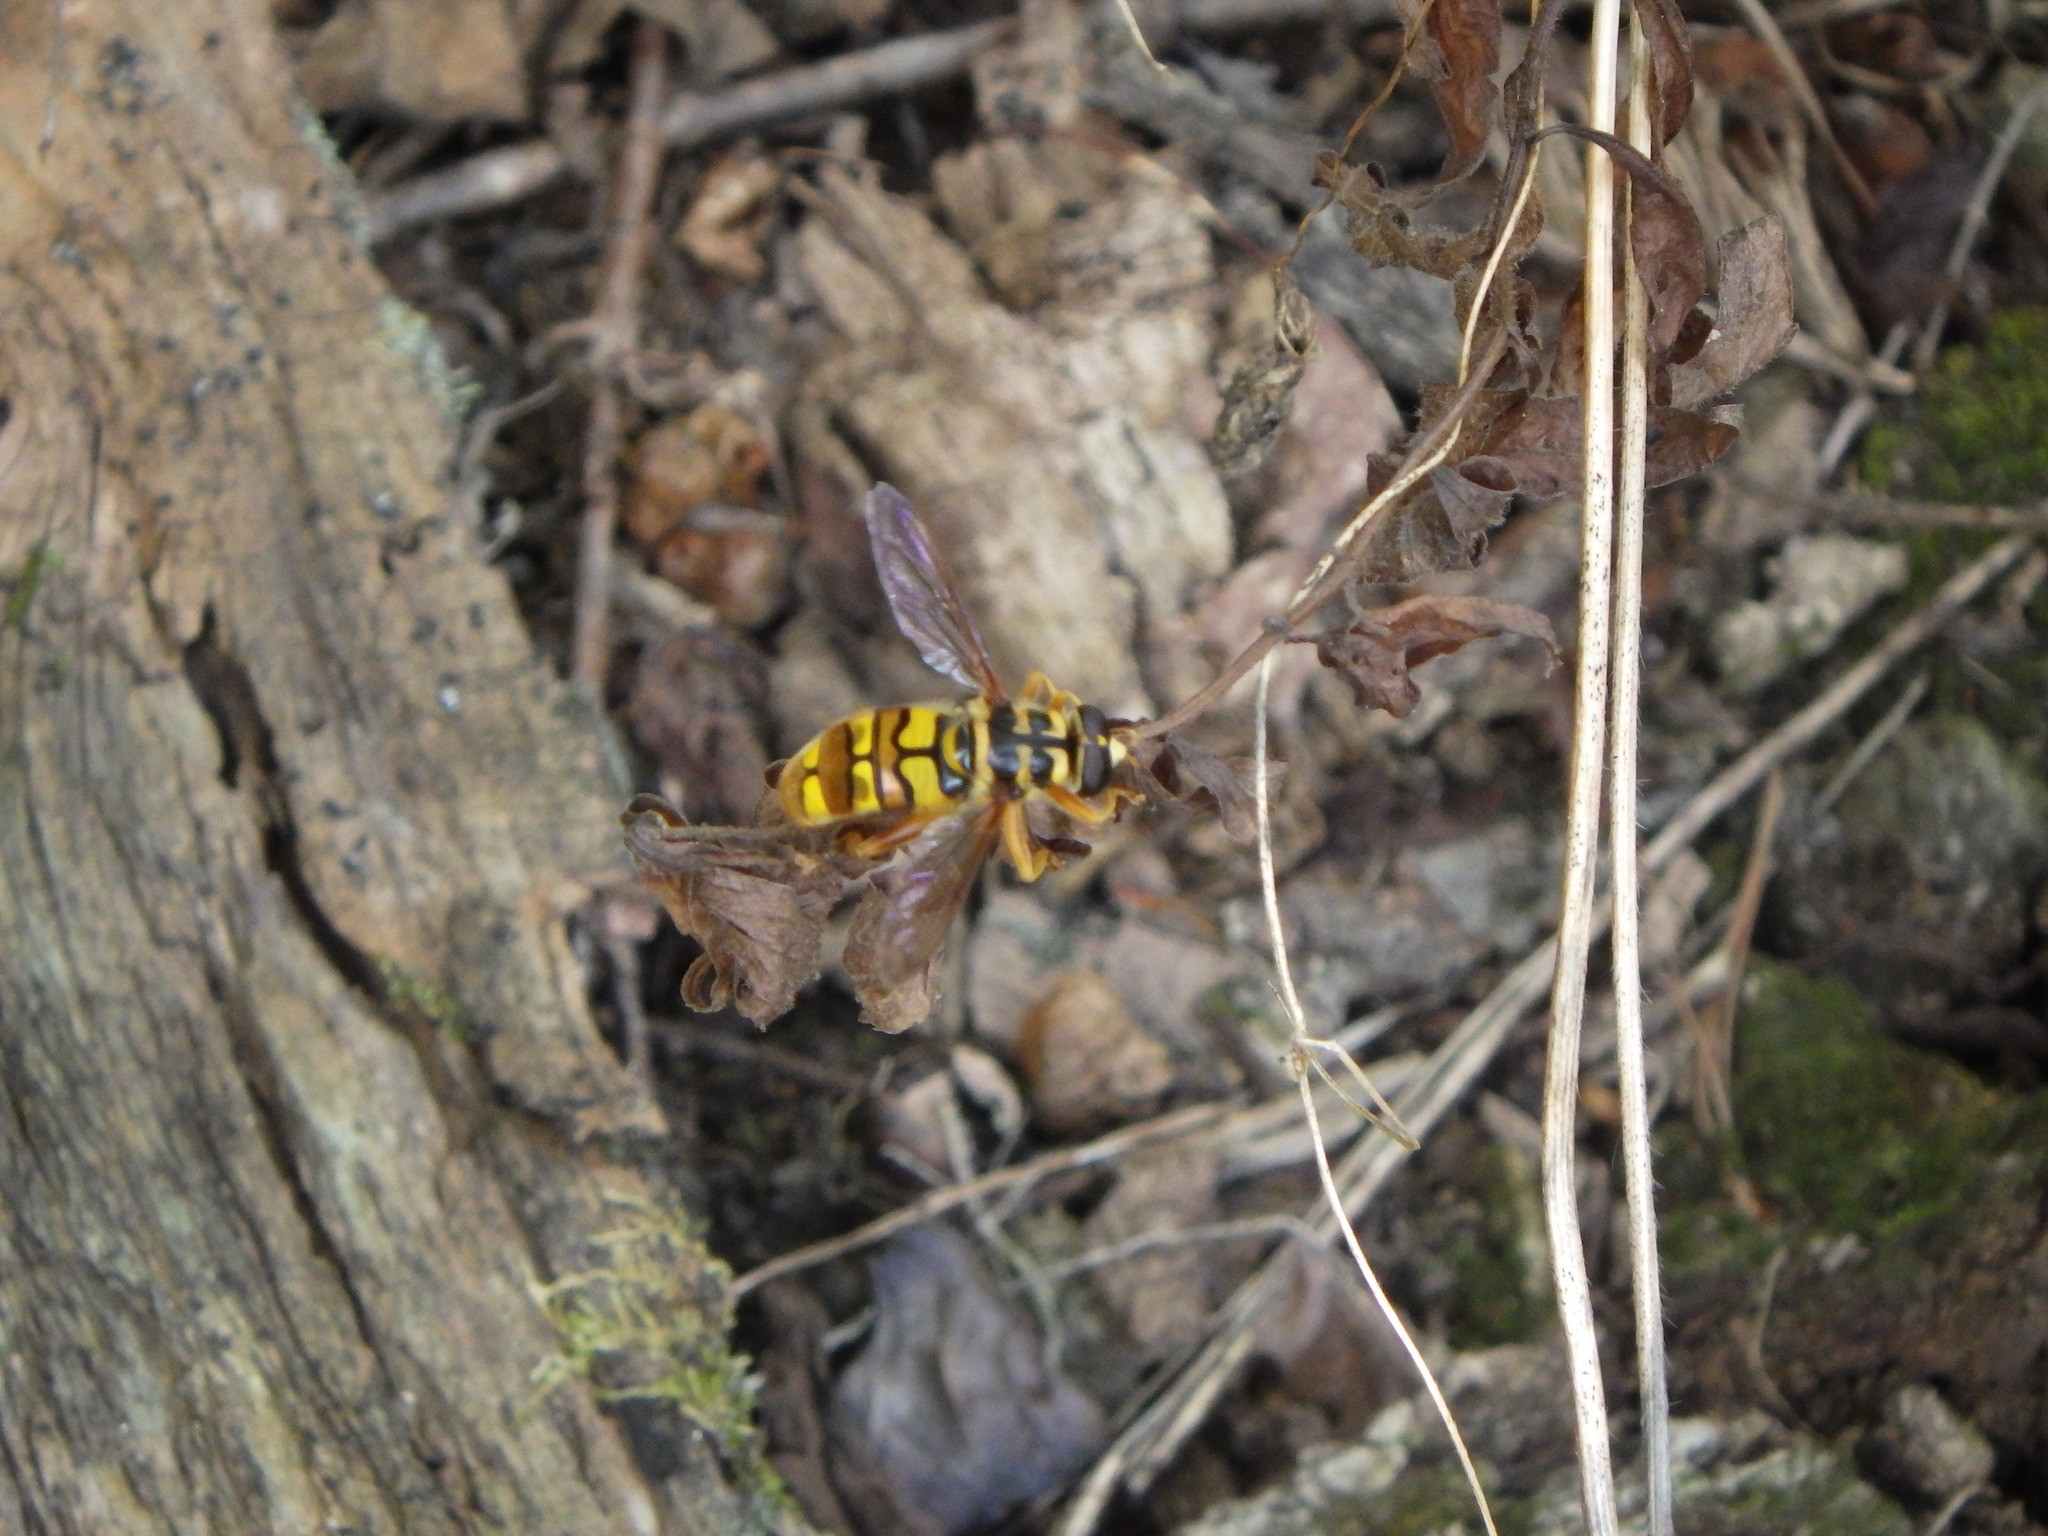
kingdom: Animalia
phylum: Arthropoda
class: Insecta
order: Diptera
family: Syrphidae
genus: Milesia
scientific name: Milesia virginiensis
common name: Virginia giant
